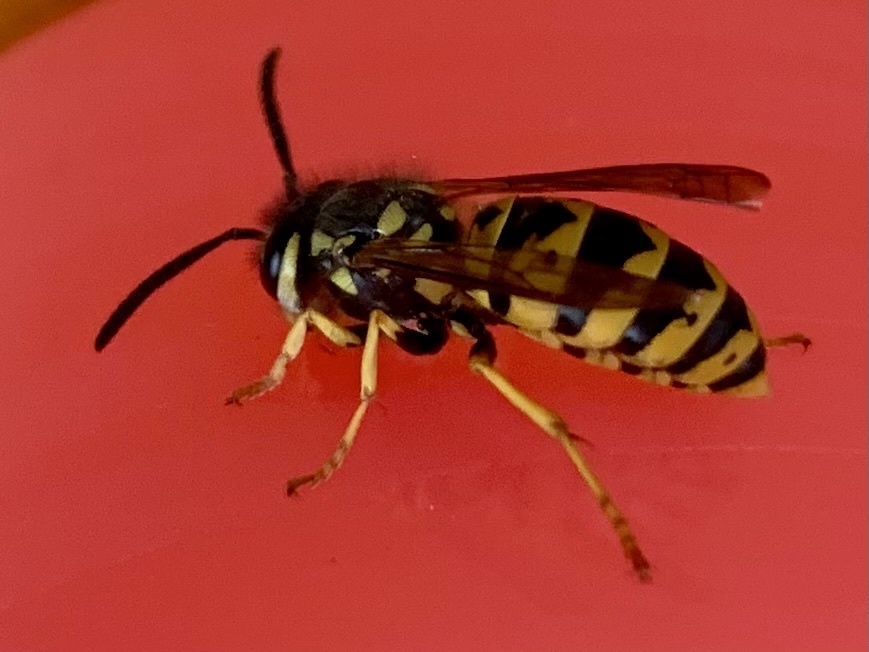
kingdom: Animalia
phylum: Arthropoda
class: Insecta
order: Hymenoptera
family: Vespidae
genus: Vespula
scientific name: Vespula germanica
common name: German wasp
